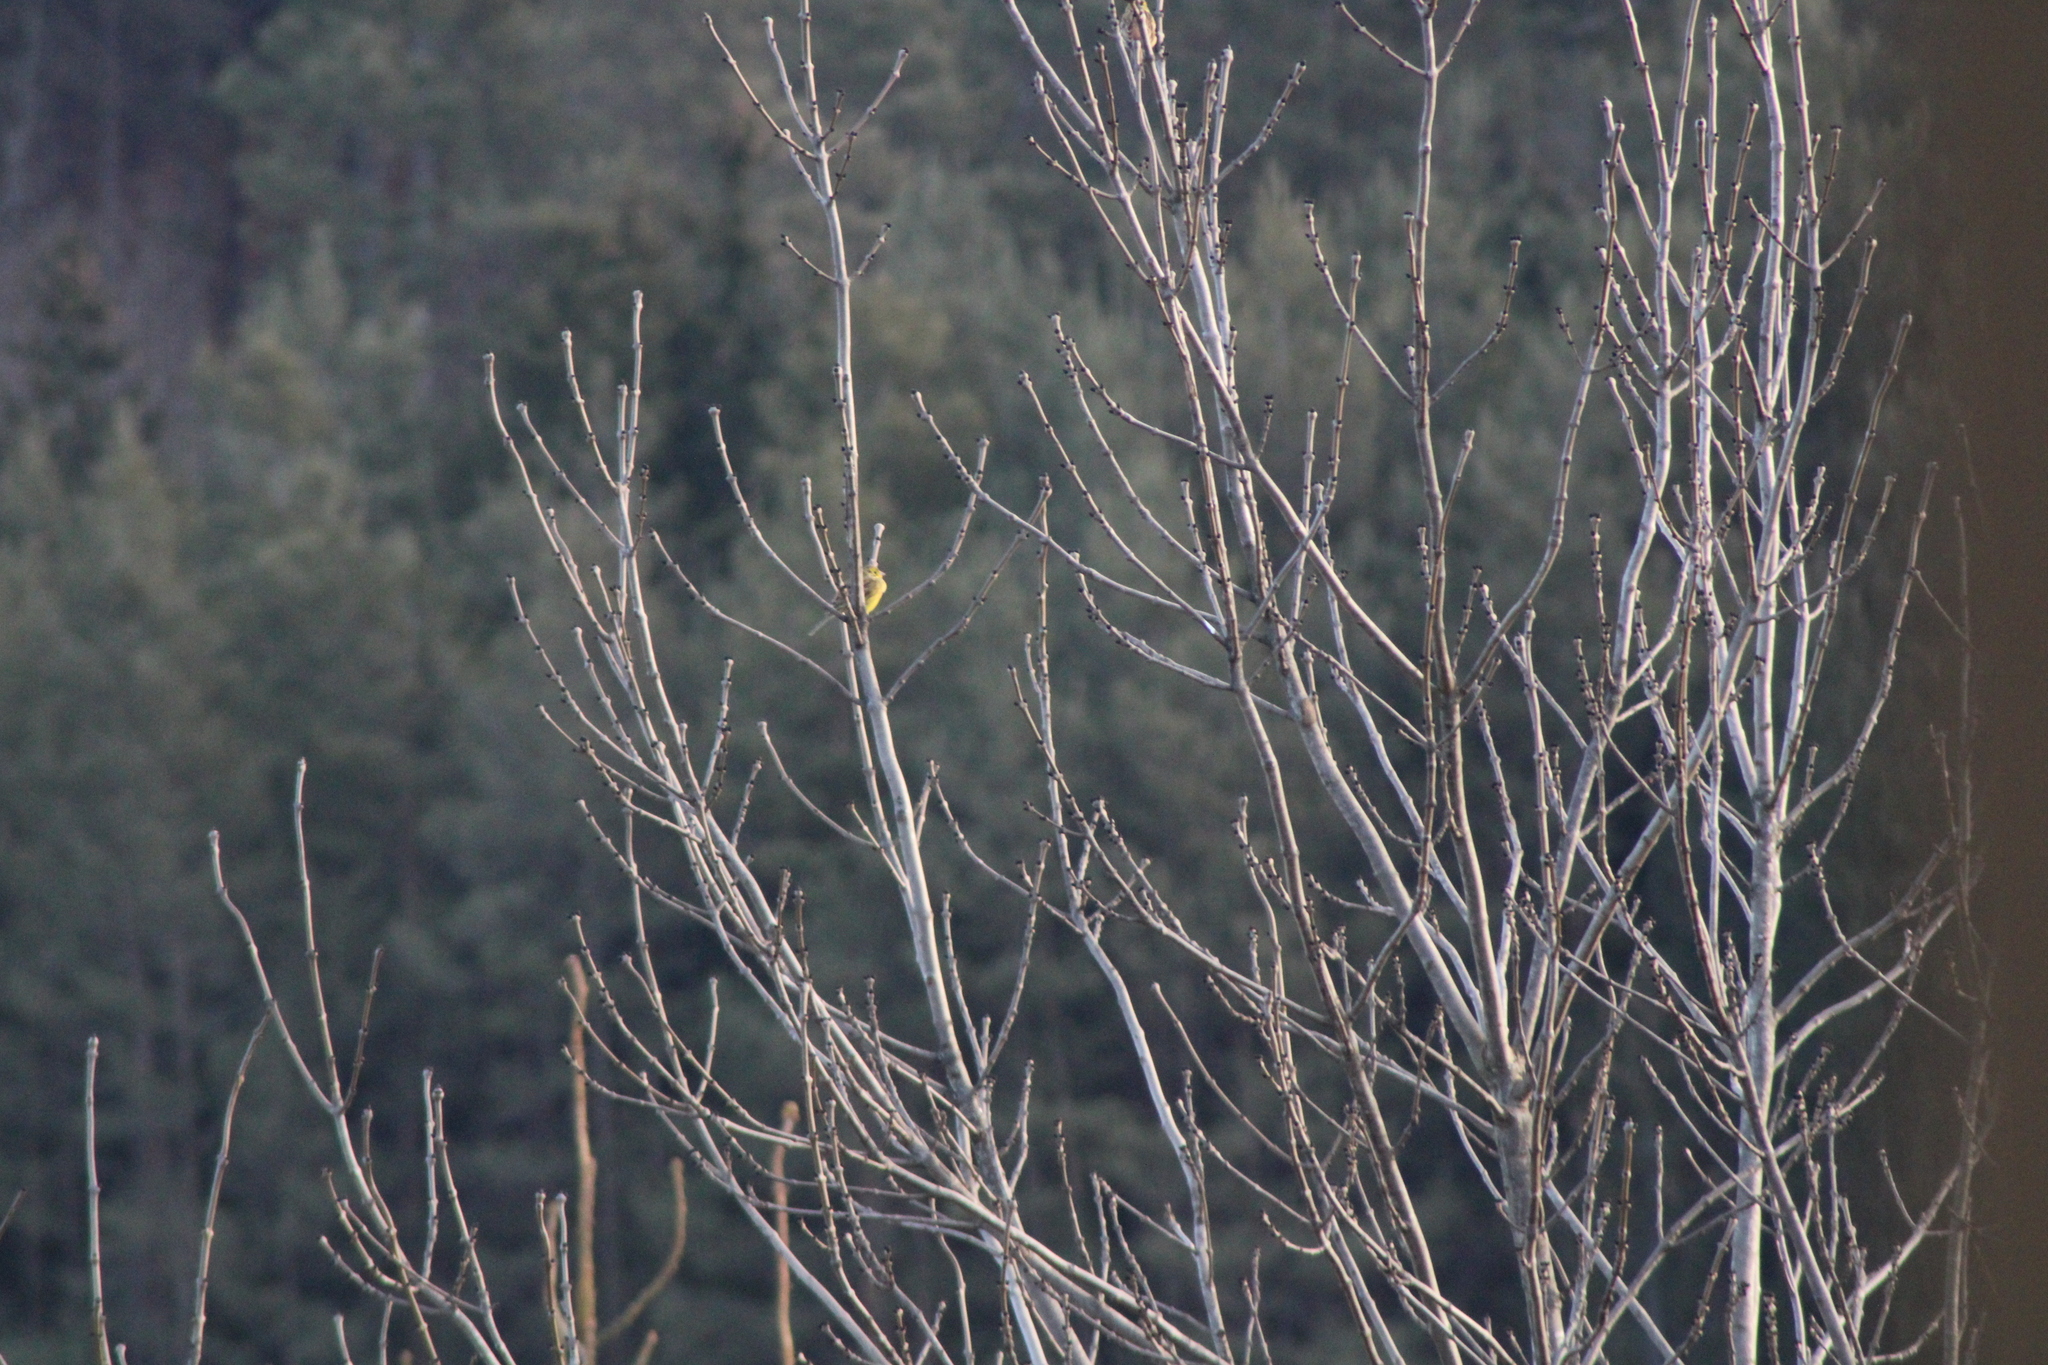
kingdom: Animalia
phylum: Chordata
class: Aves
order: Passeriformes
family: Emberizidae
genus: Emberiza
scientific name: Emberiza citrinella
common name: Yellowhammer
